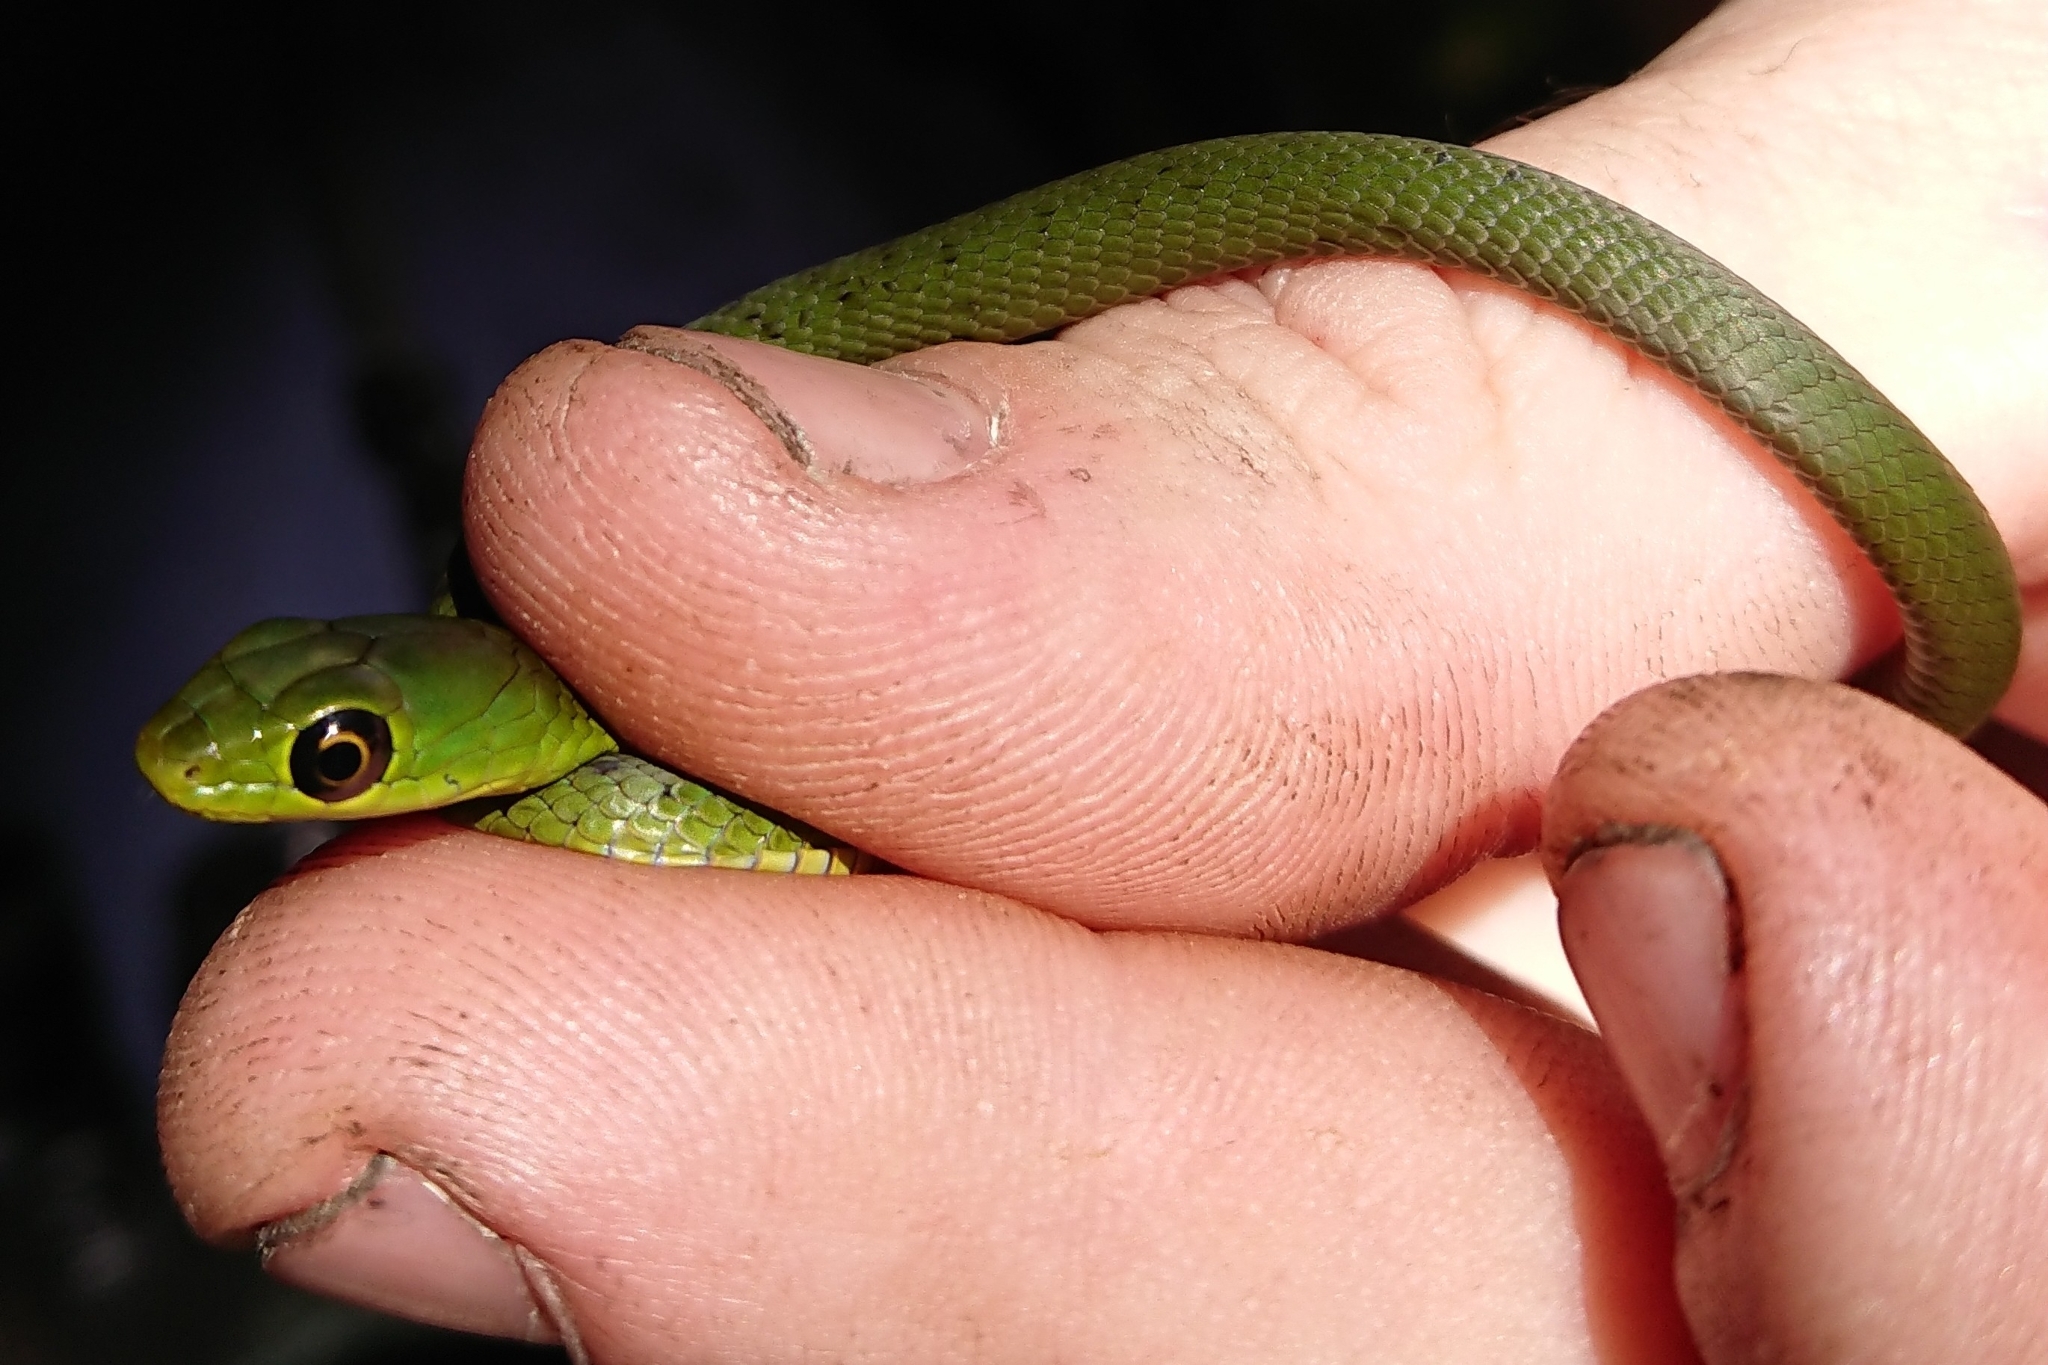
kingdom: Animalia
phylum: Chordata
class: Squamata
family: Colubridae
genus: Philothamnus
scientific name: Philothamnus natalensis
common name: Eastern natal green snake
